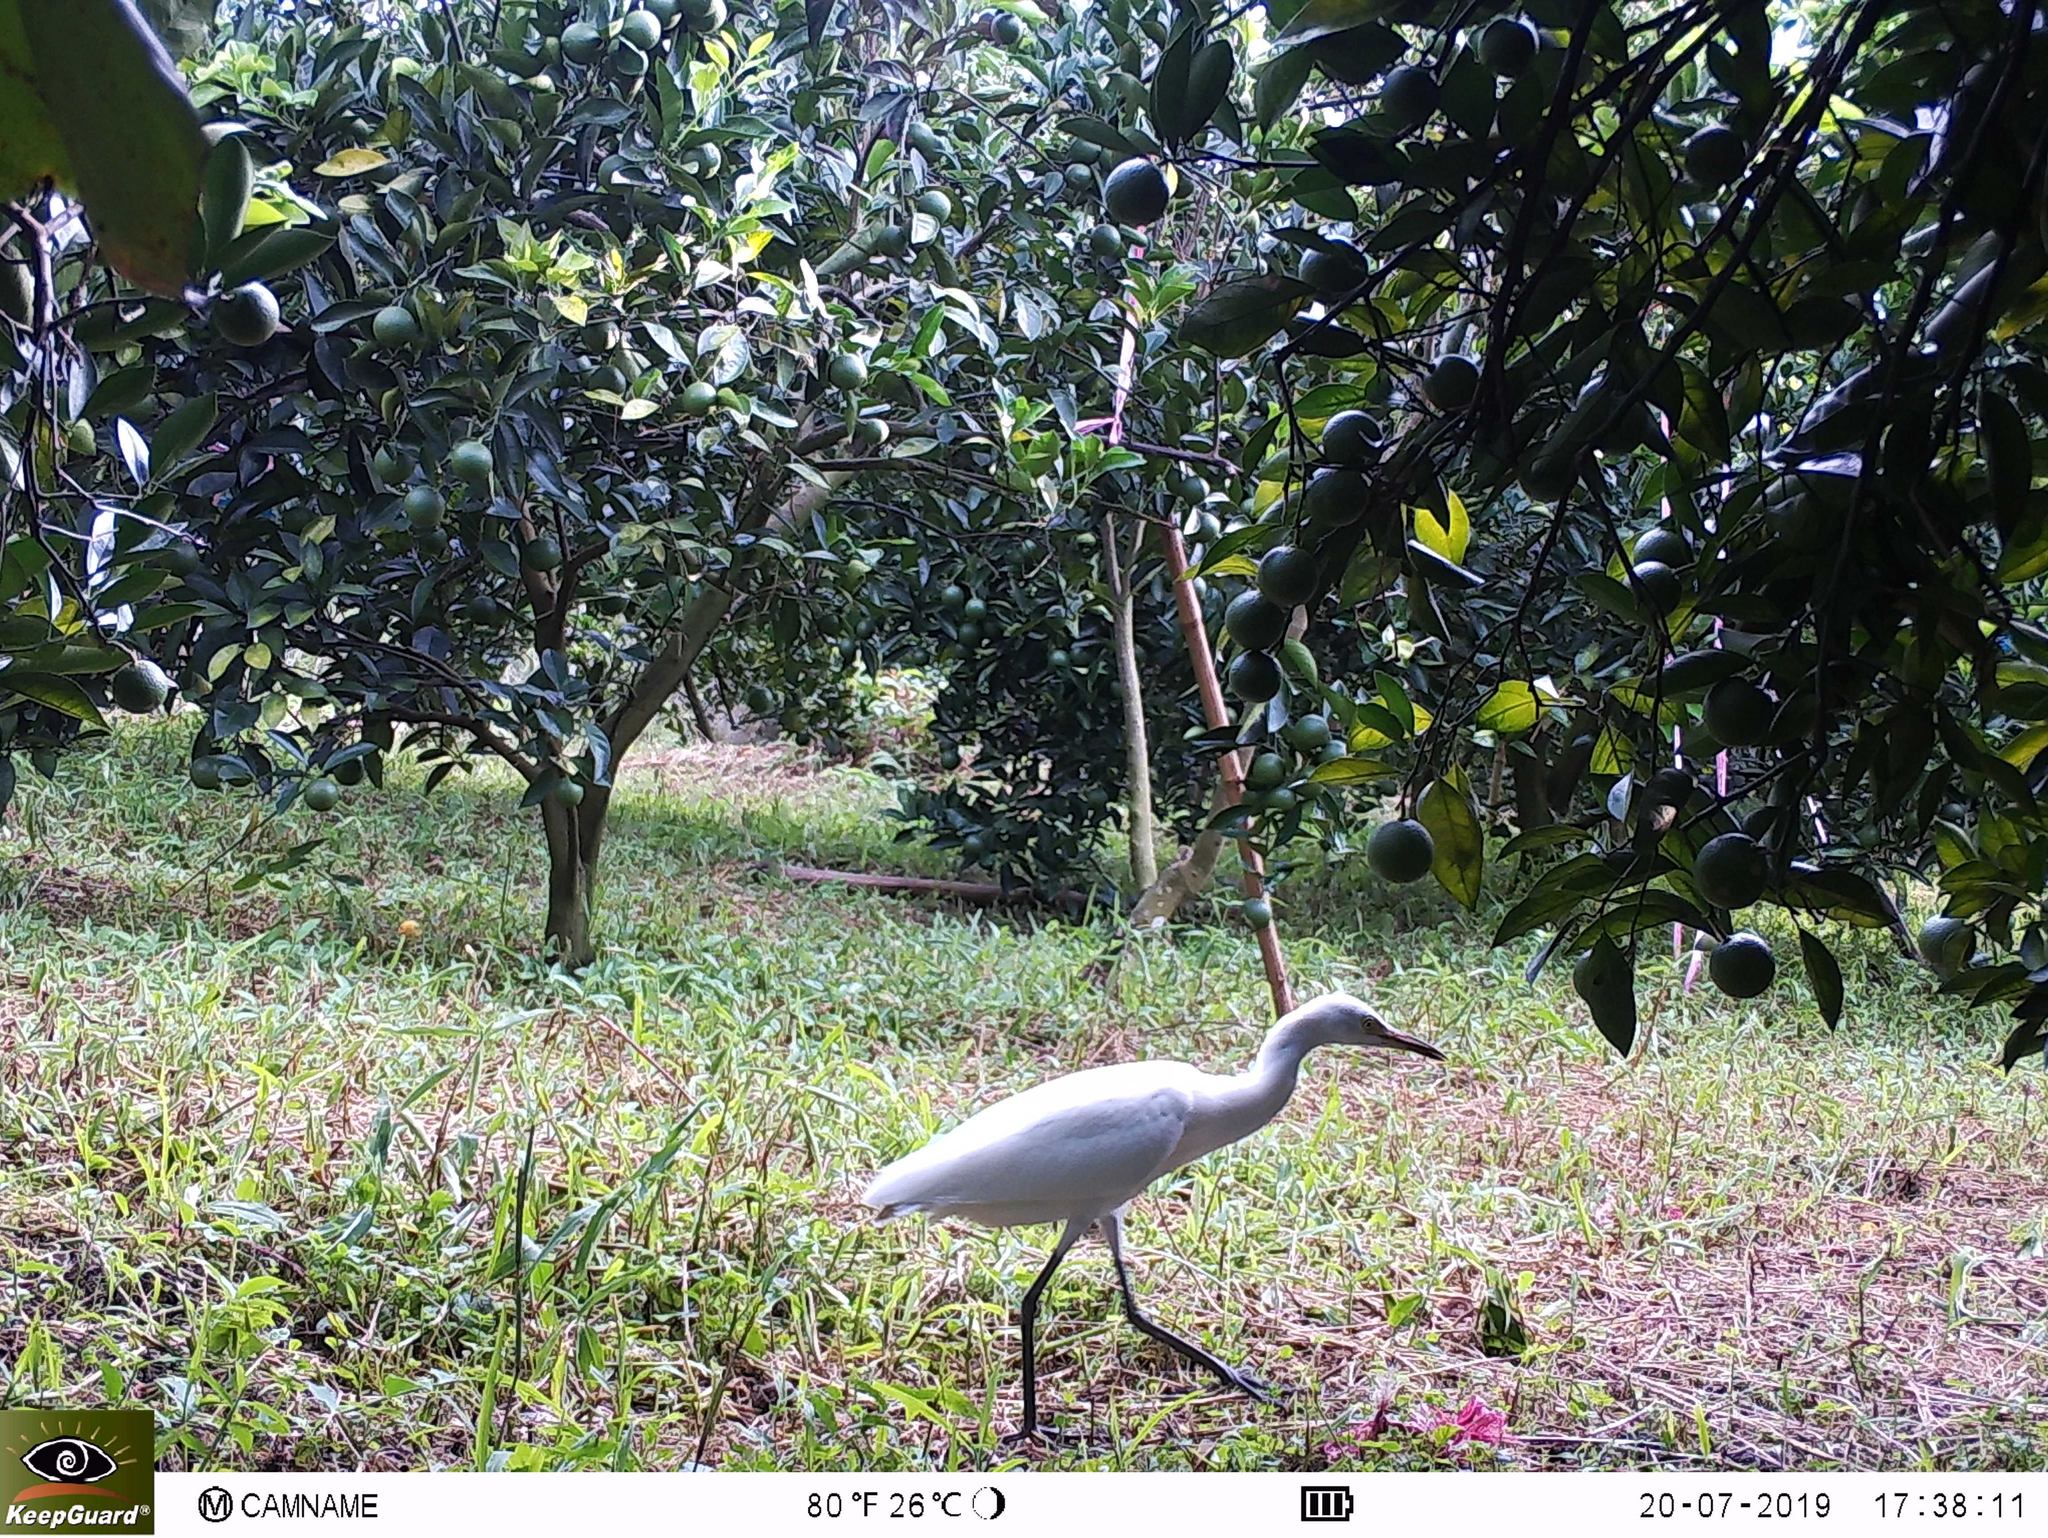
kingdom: Animalia
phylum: Chordata
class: Aves
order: Pelecaniformes
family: Ardeidae
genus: Bubulcus
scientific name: Bubulcus coromandus
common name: Eastern cattle egret
